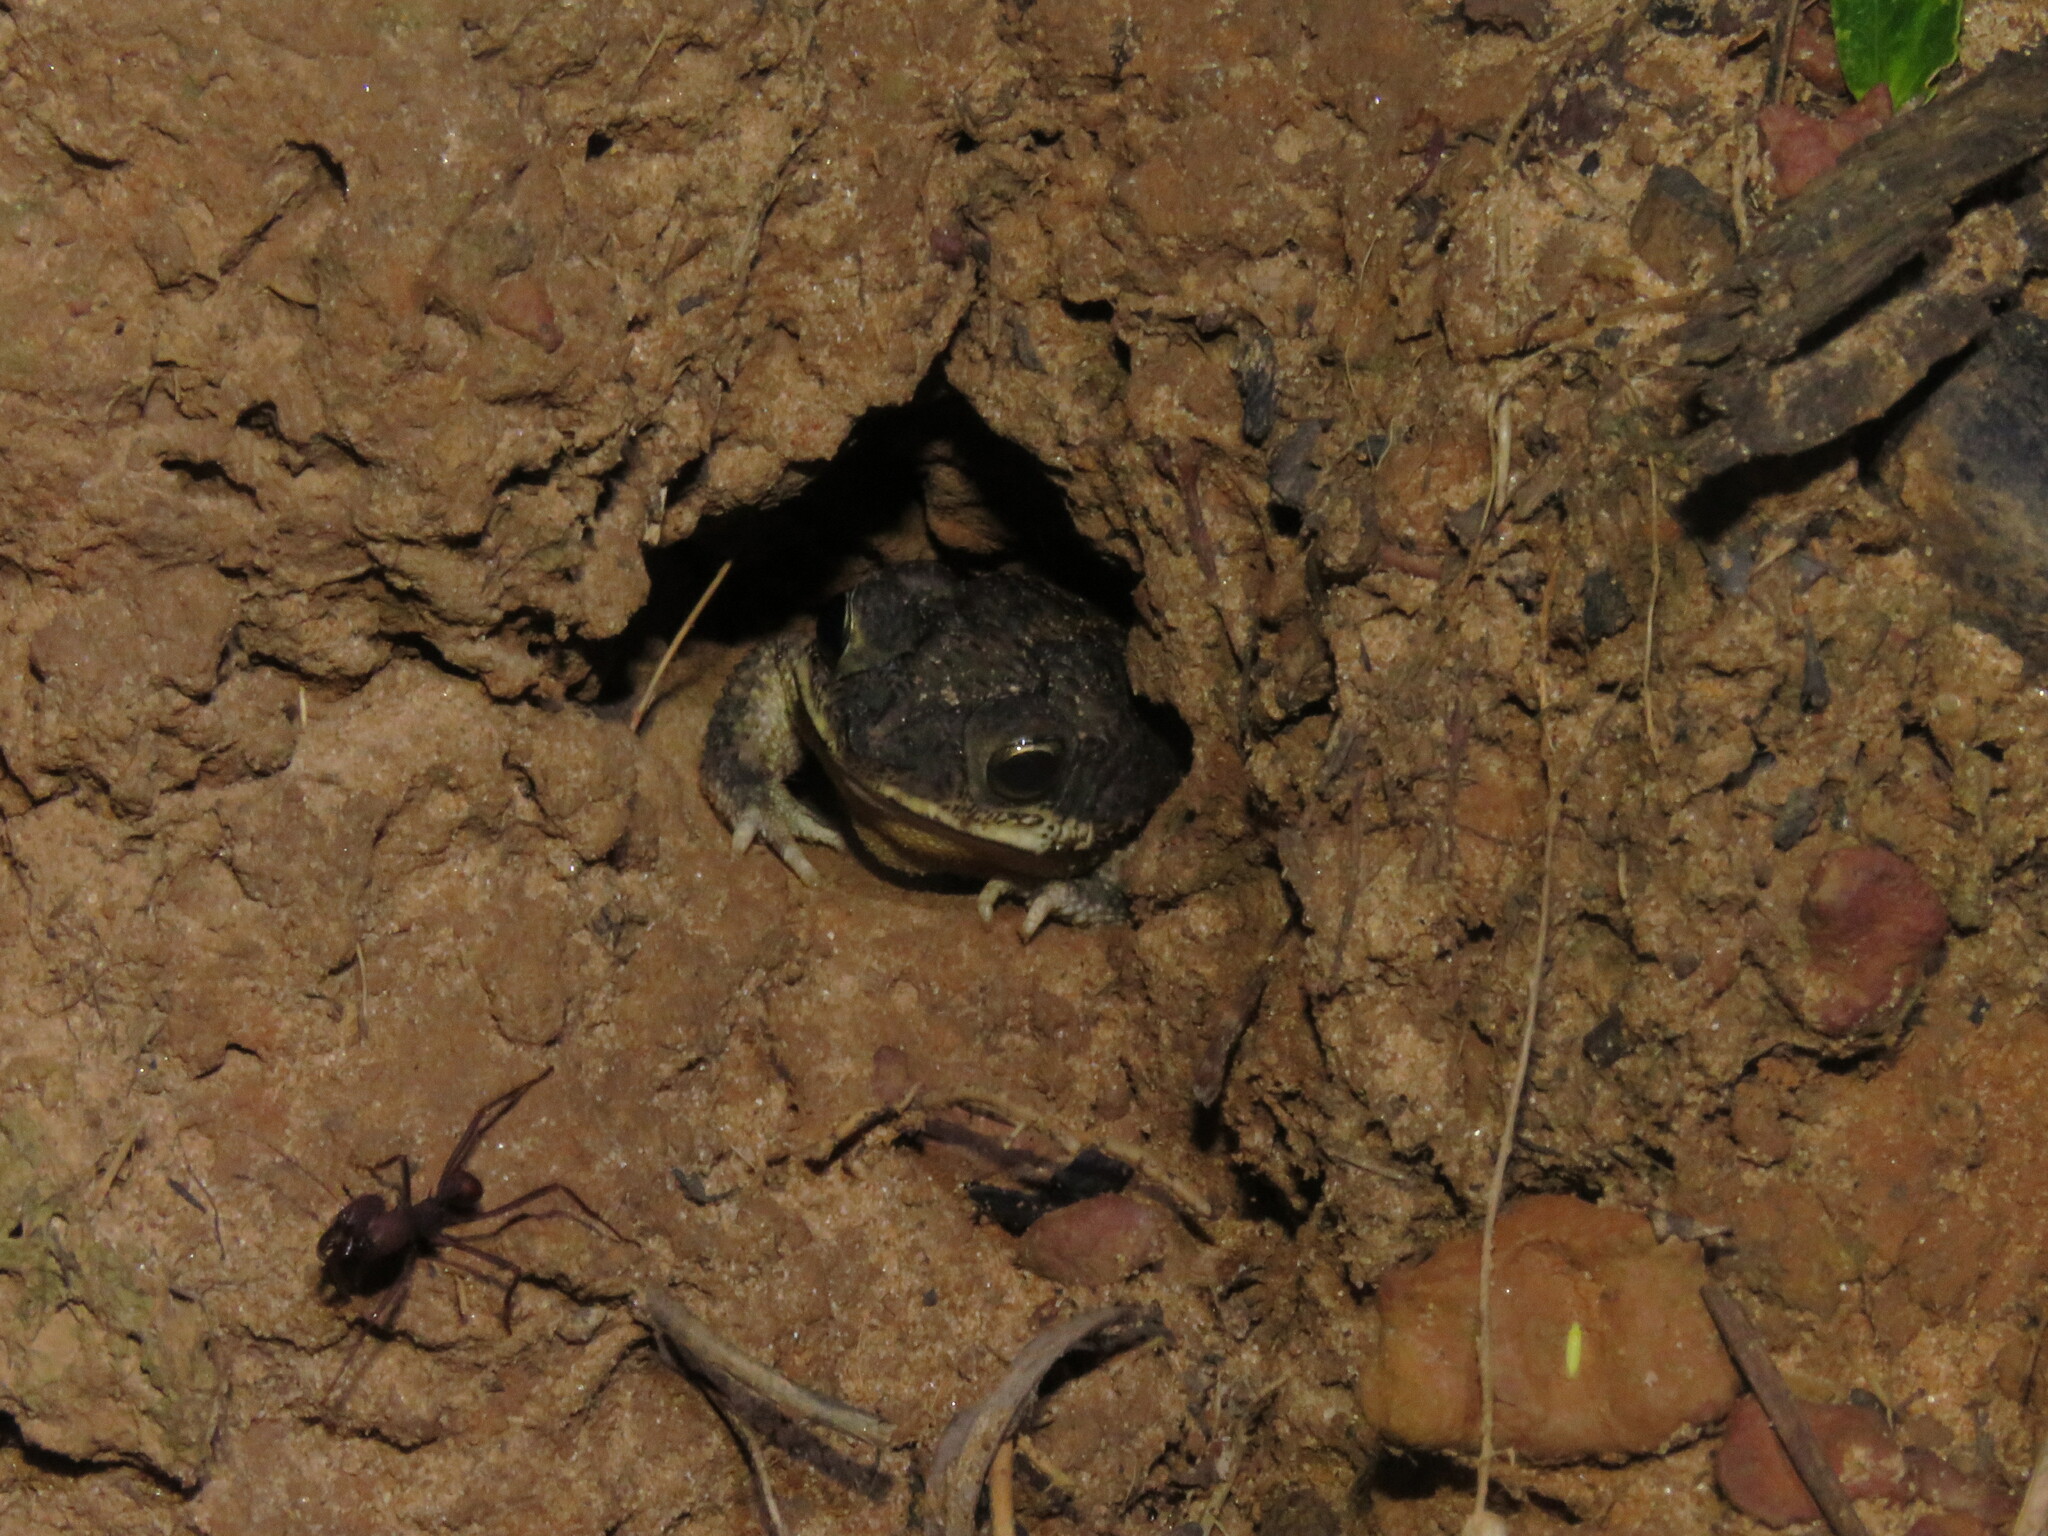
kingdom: Animalia
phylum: Chordata
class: Amphibia
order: Anura
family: Bufonidae
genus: Rhinella
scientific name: Rhinella major
